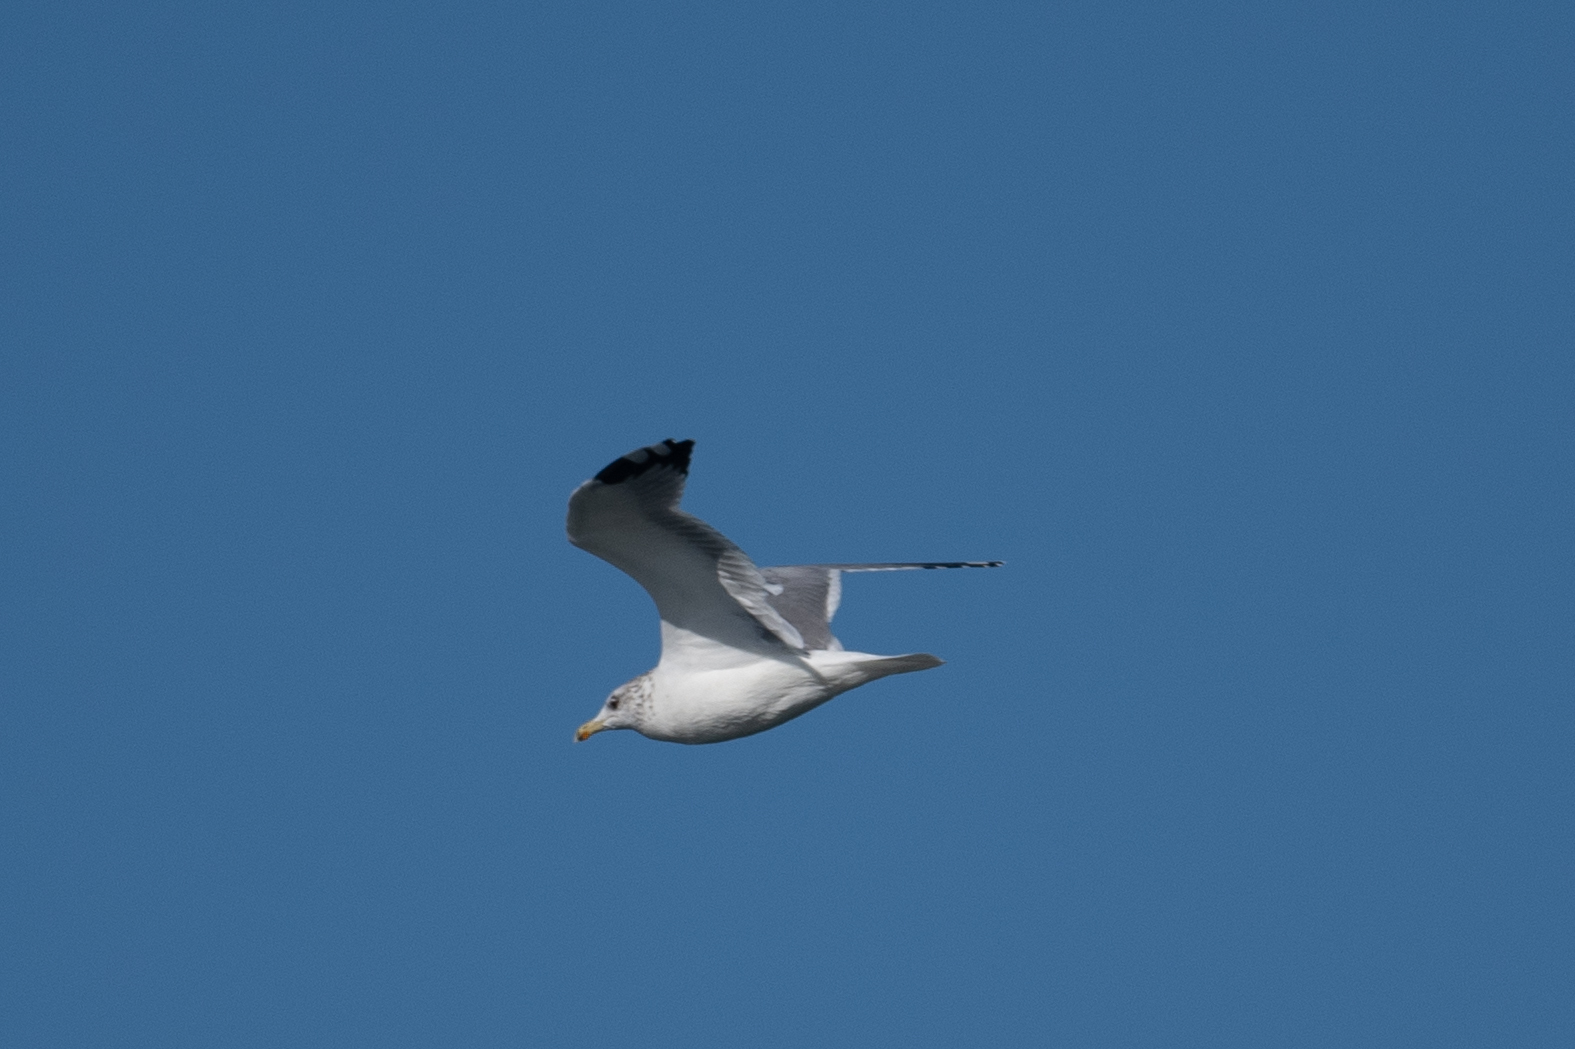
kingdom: Animalia
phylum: Chordata
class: Aves
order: Charadriiformes
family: Laridae
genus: Larus
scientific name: Larus californicus
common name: California gull
